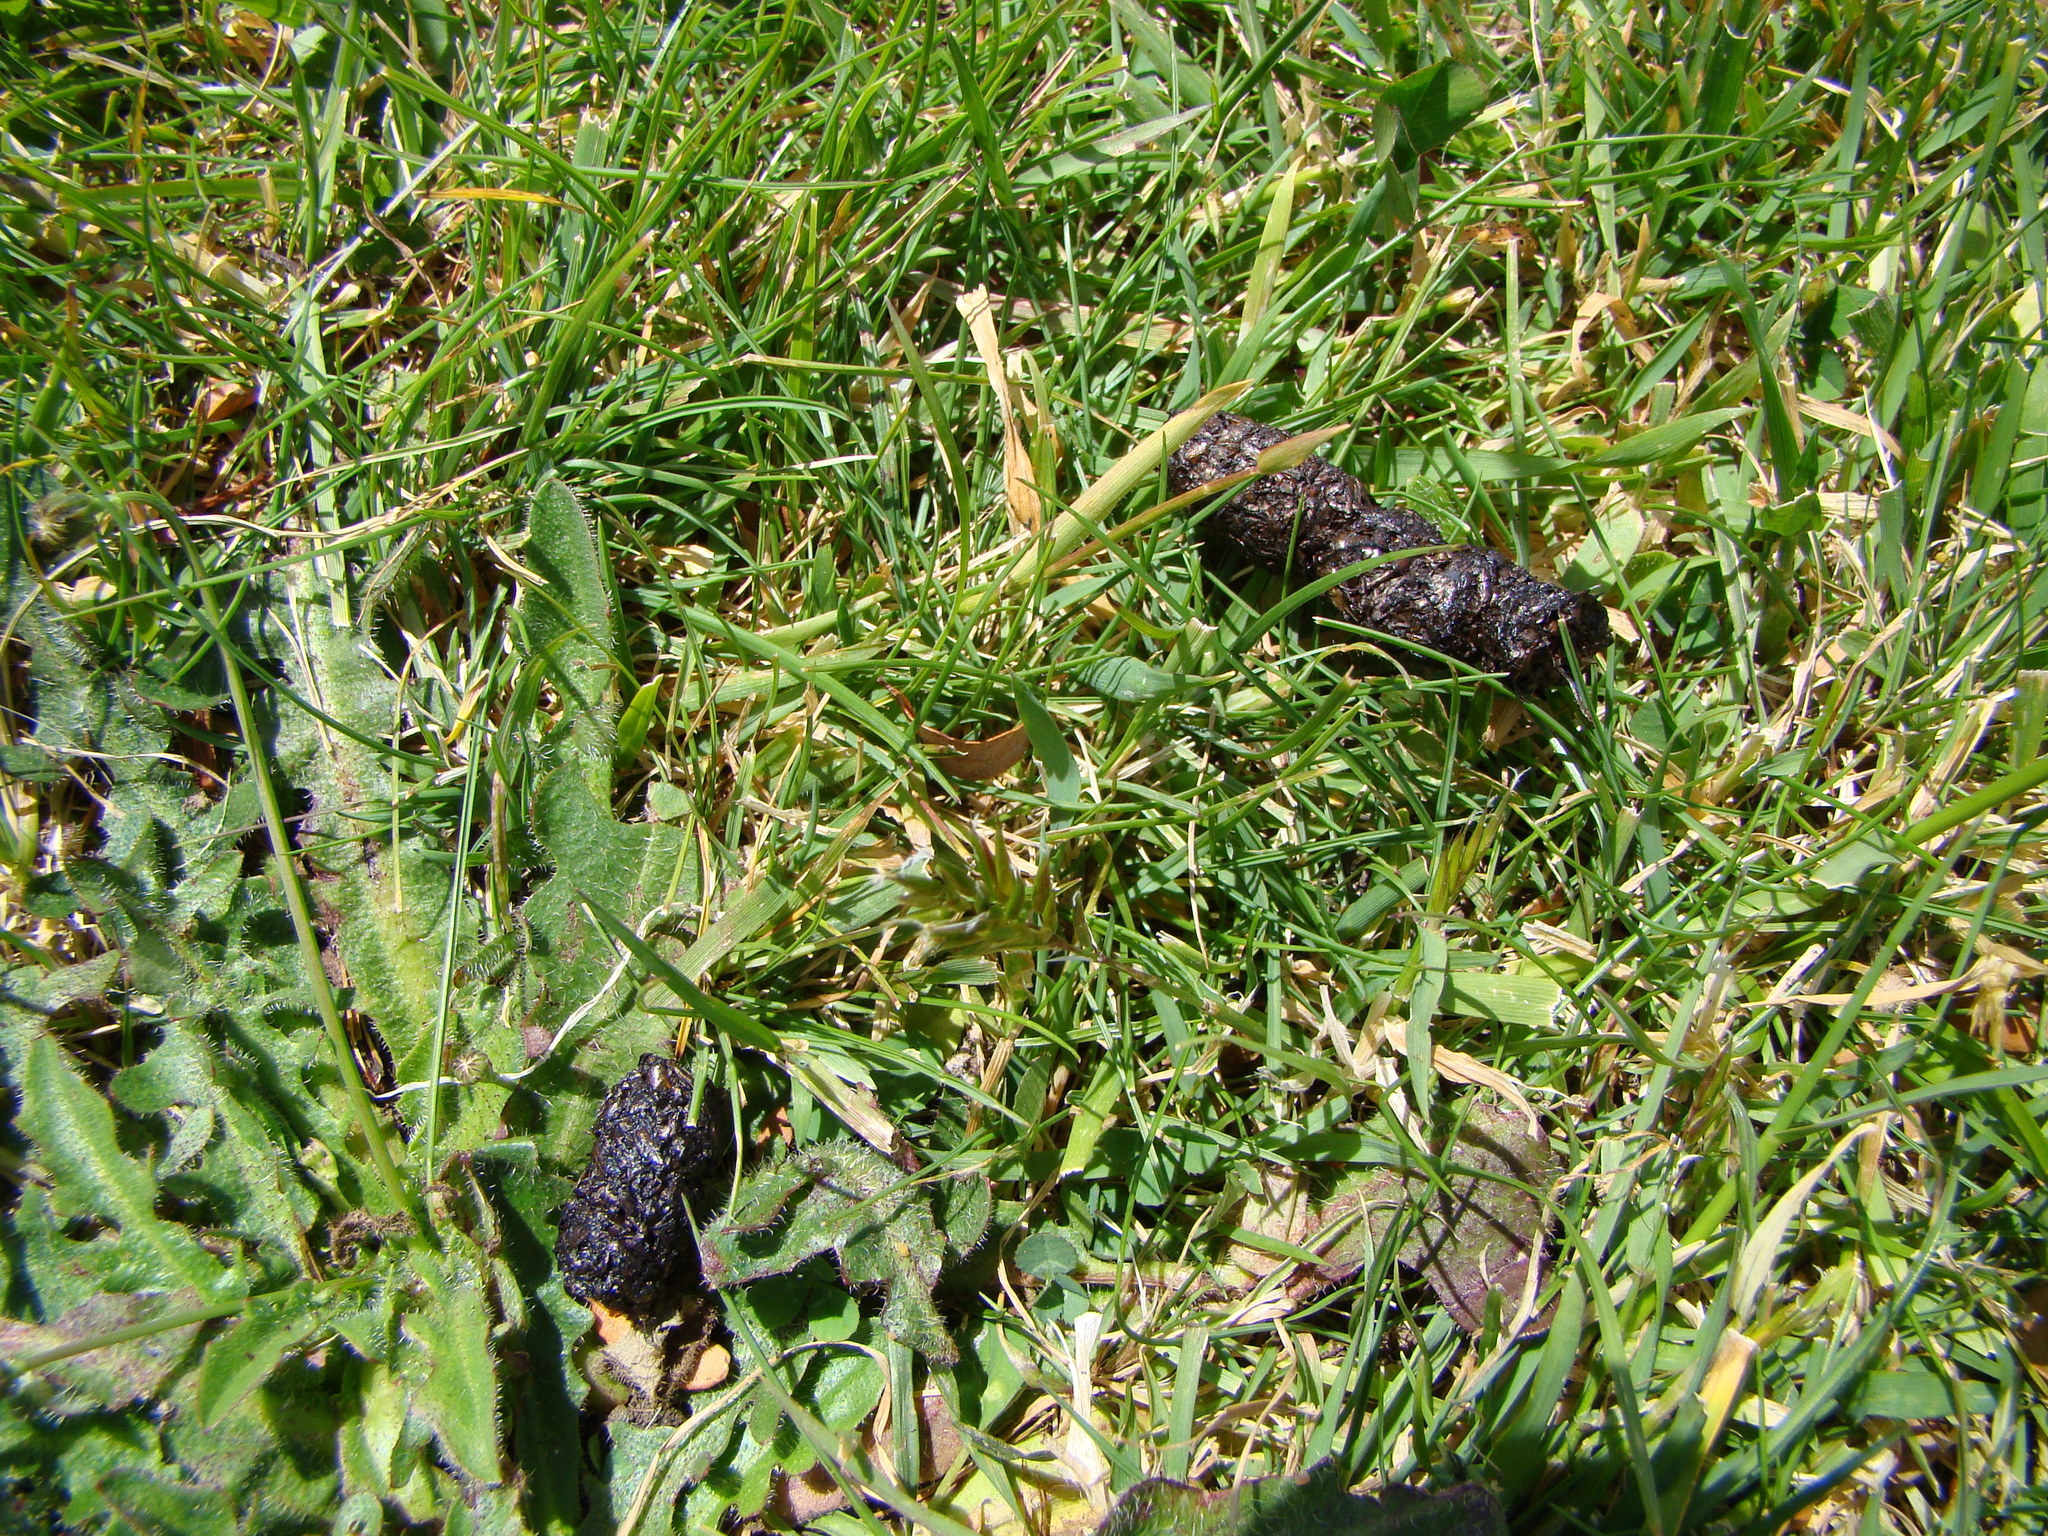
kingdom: Animalia
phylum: Chordata
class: Mammalia
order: Erinaceomorpha
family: Erinaceidae
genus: Erinaceus
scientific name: Erinaceus europaeus
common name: West european hedgehog
